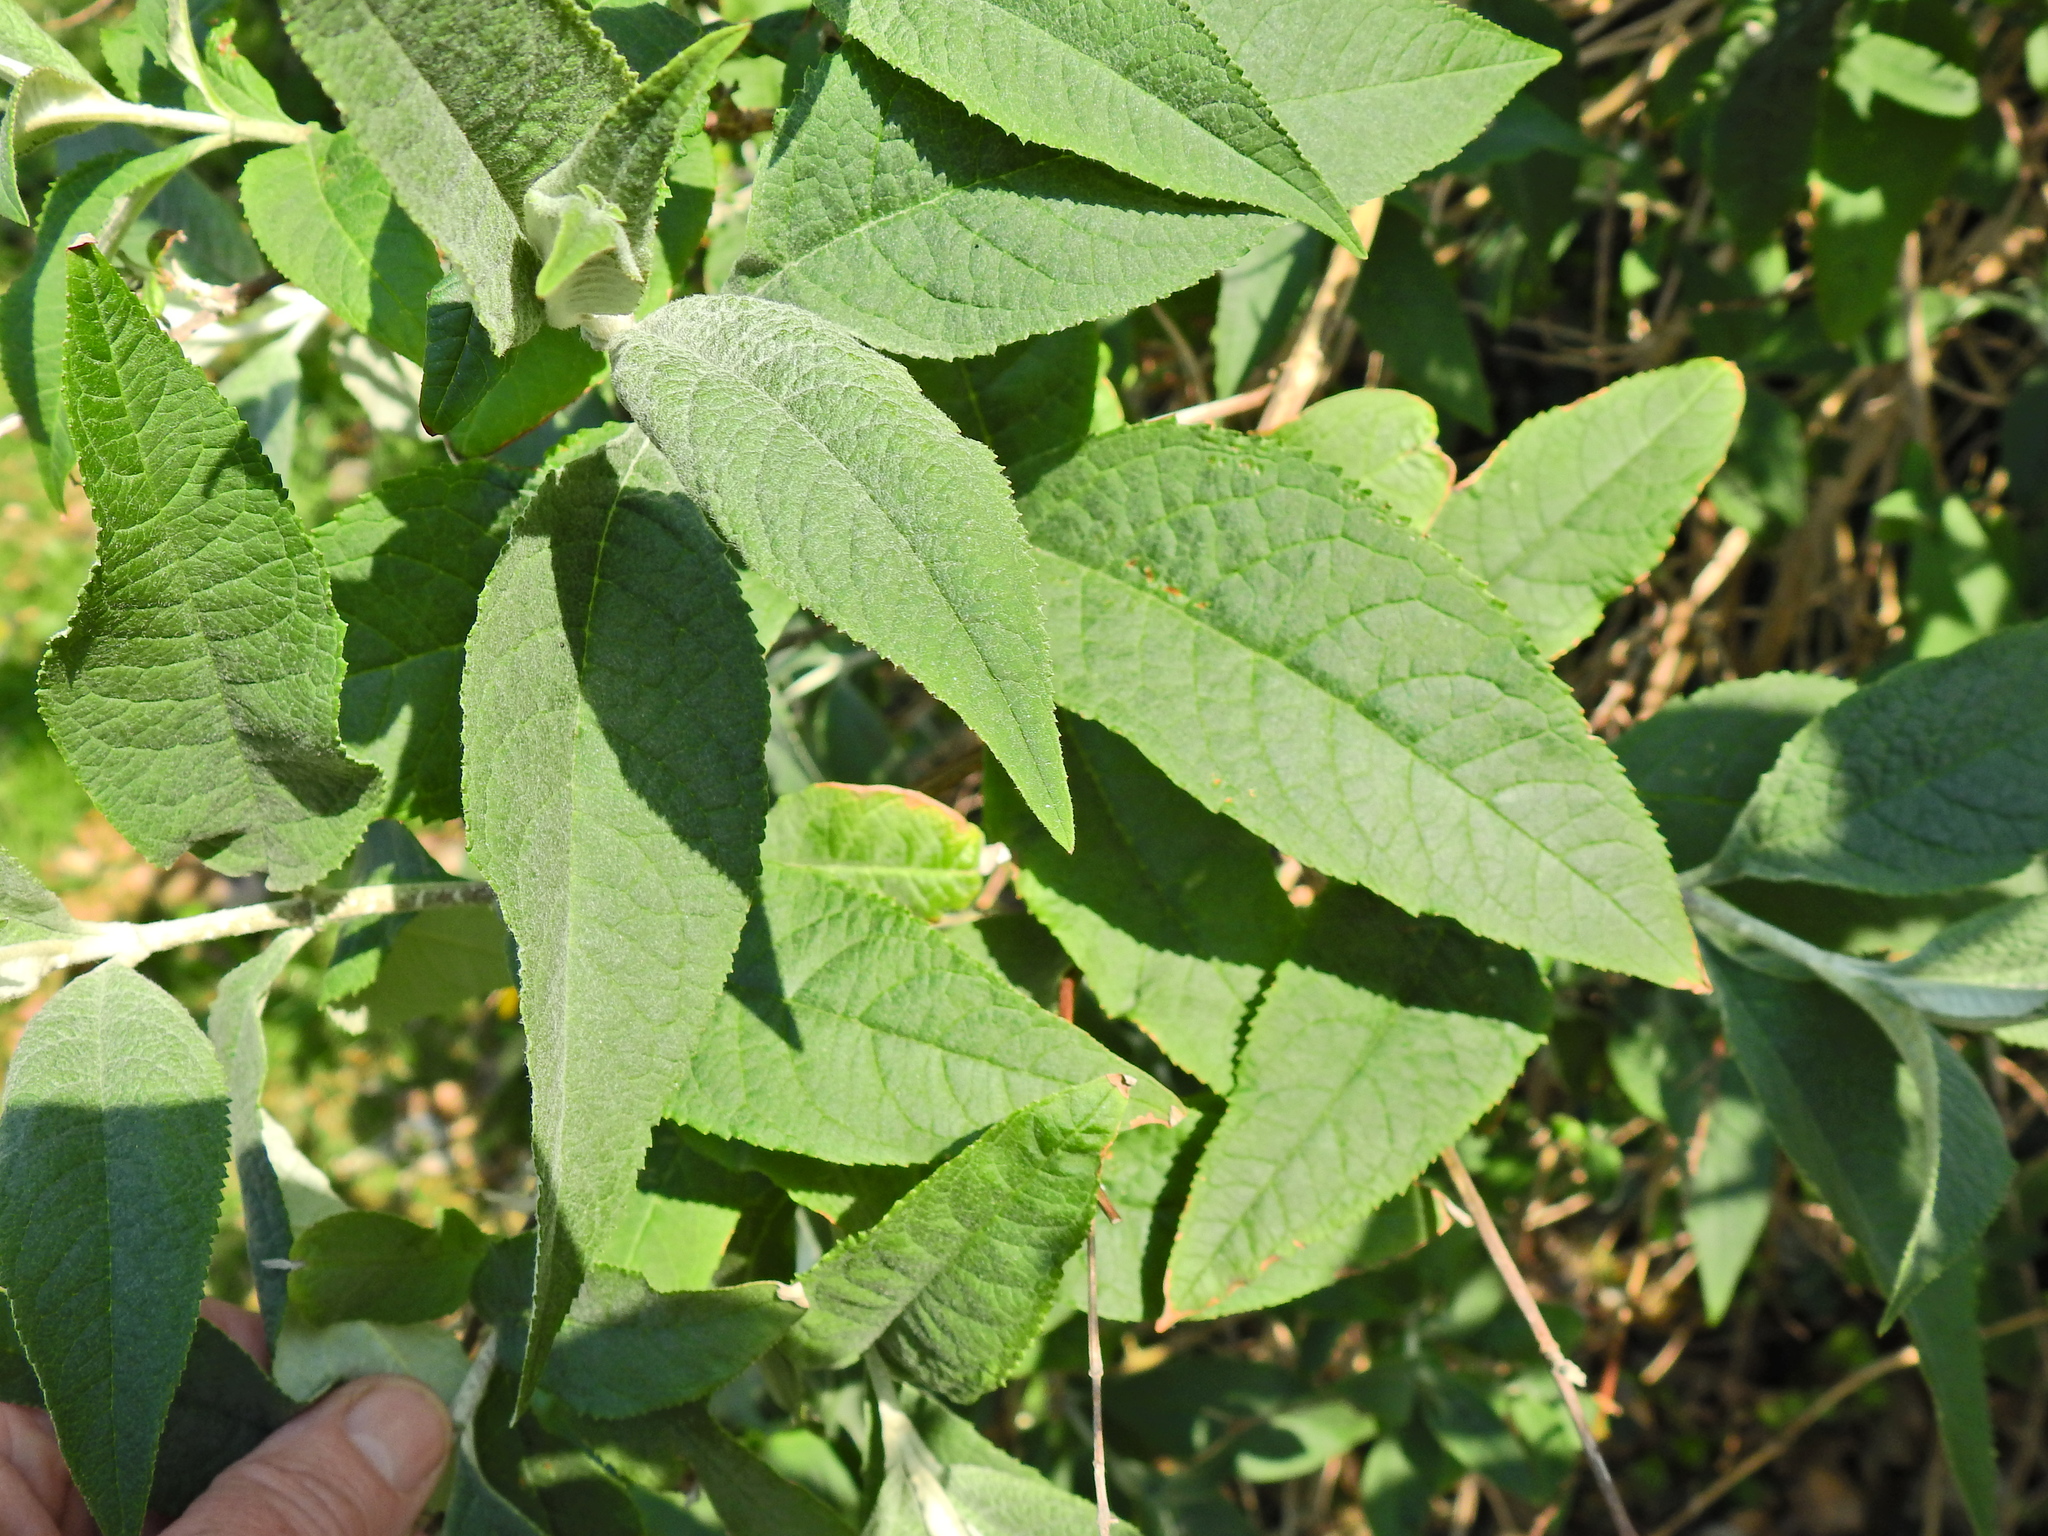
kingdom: Plantae
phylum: Tracheophyta
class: Magnoliopsida
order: Lamiales
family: Scrophulariaceae
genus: Buddleja
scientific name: Buddleja davidii
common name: Butterfly-bush
